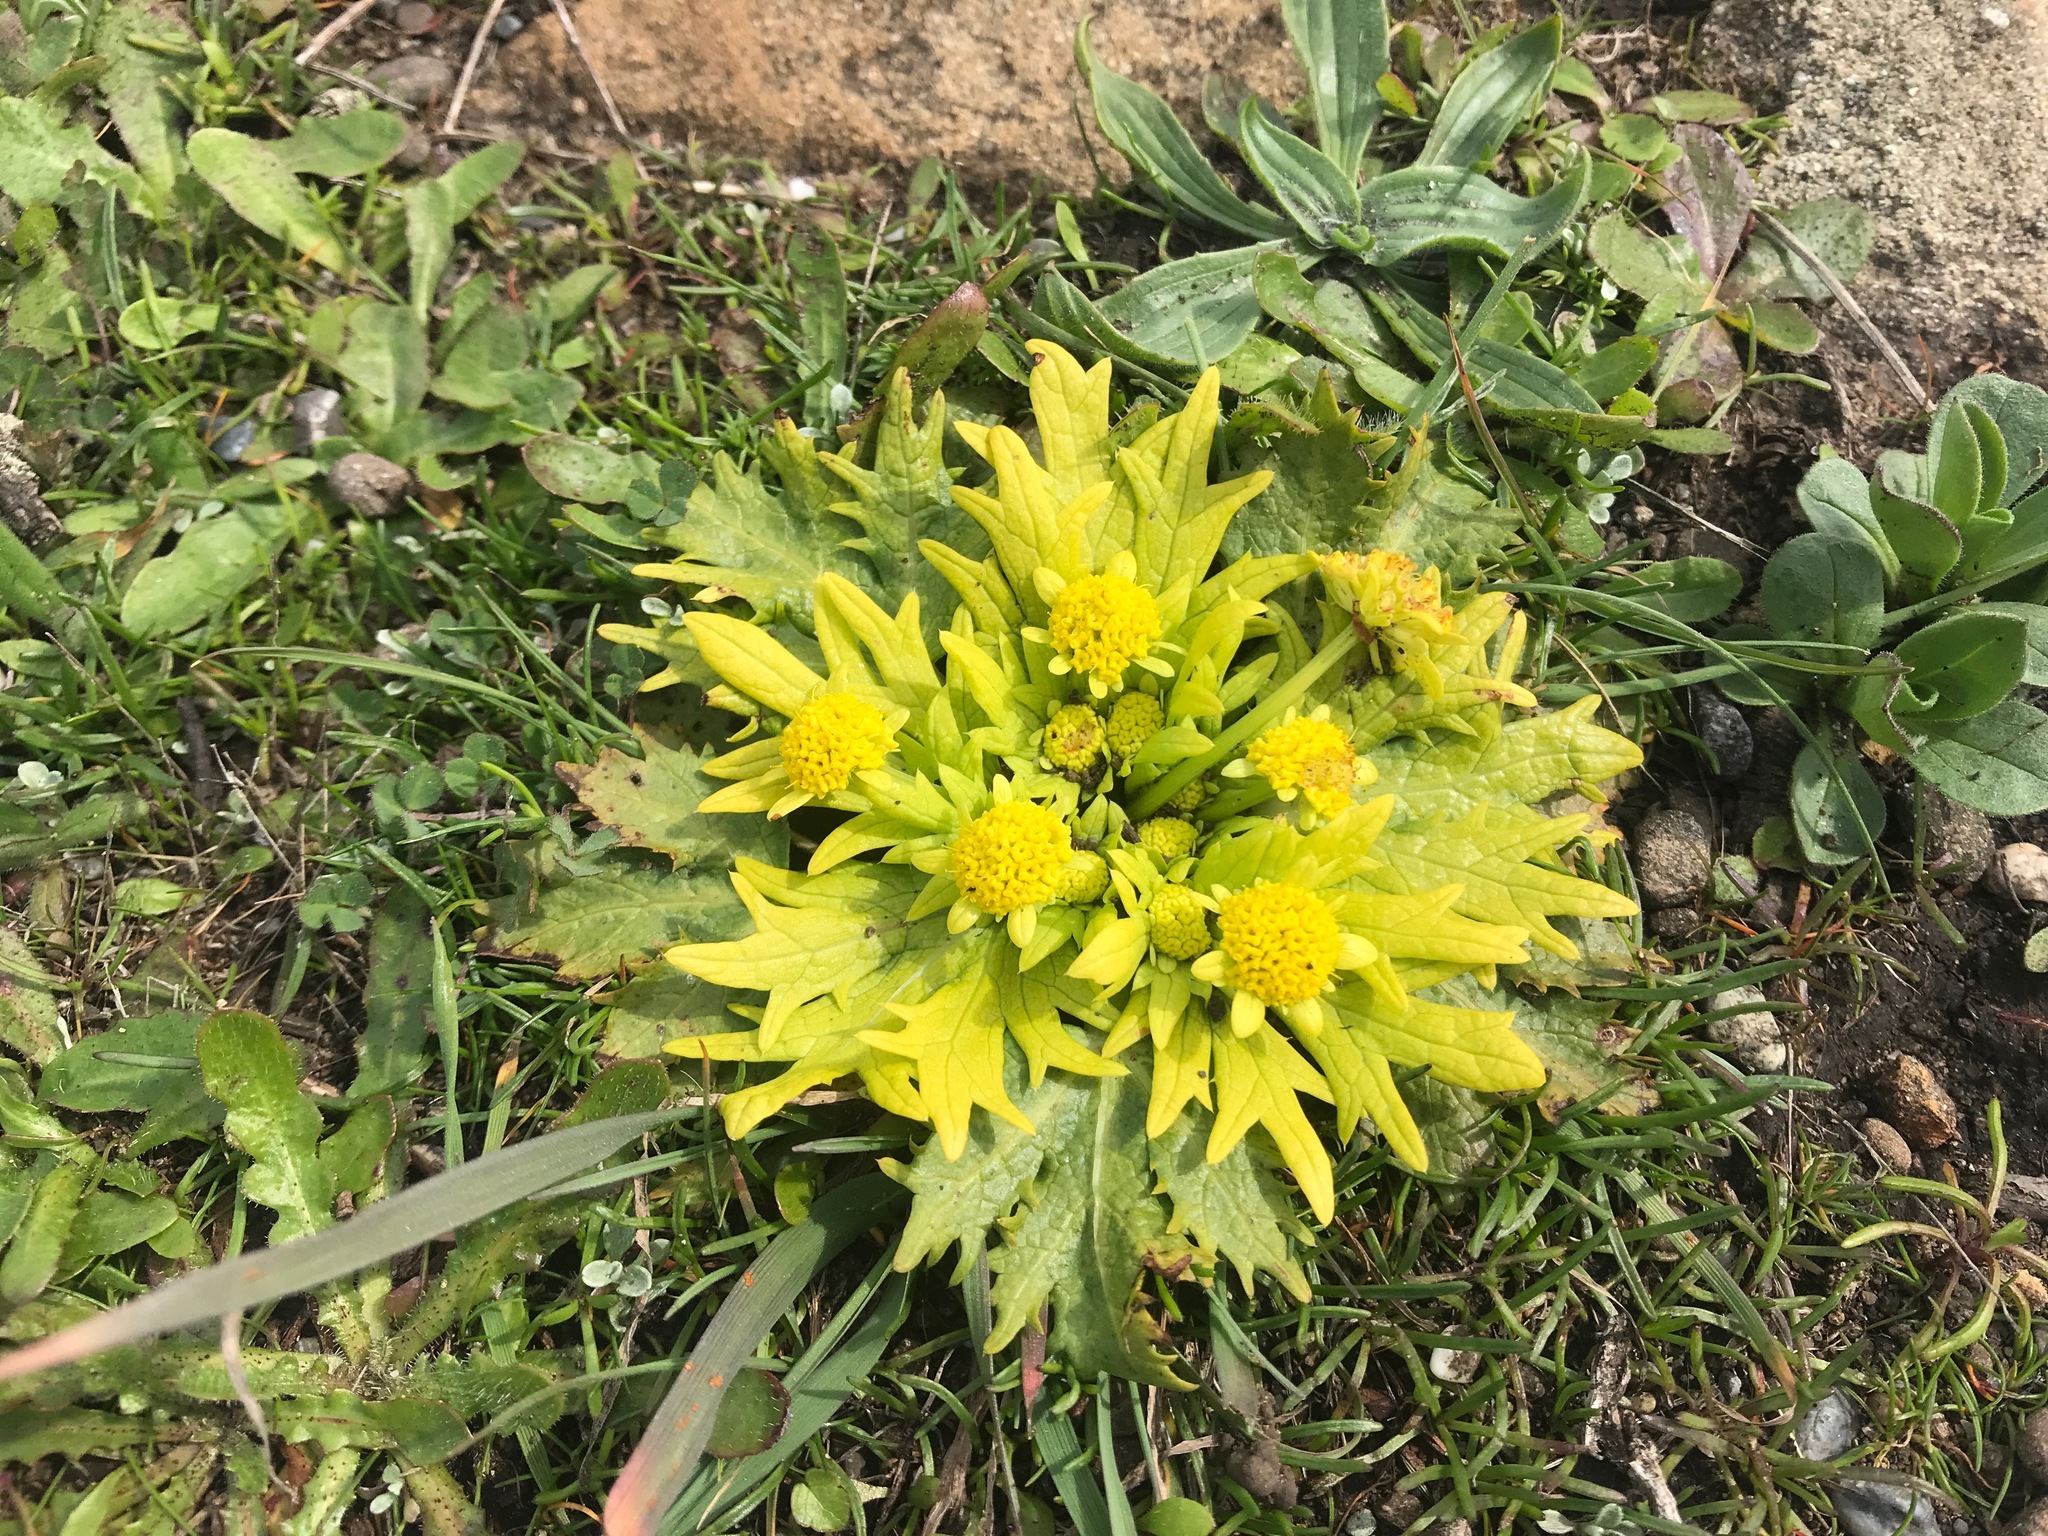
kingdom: Plantae
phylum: Tracheophyta
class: Magnoliopsida
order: Apiales
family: Apiaceae
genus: Sanicula
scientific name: Sanicula arctopoides
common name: Footsteps-of-spring
